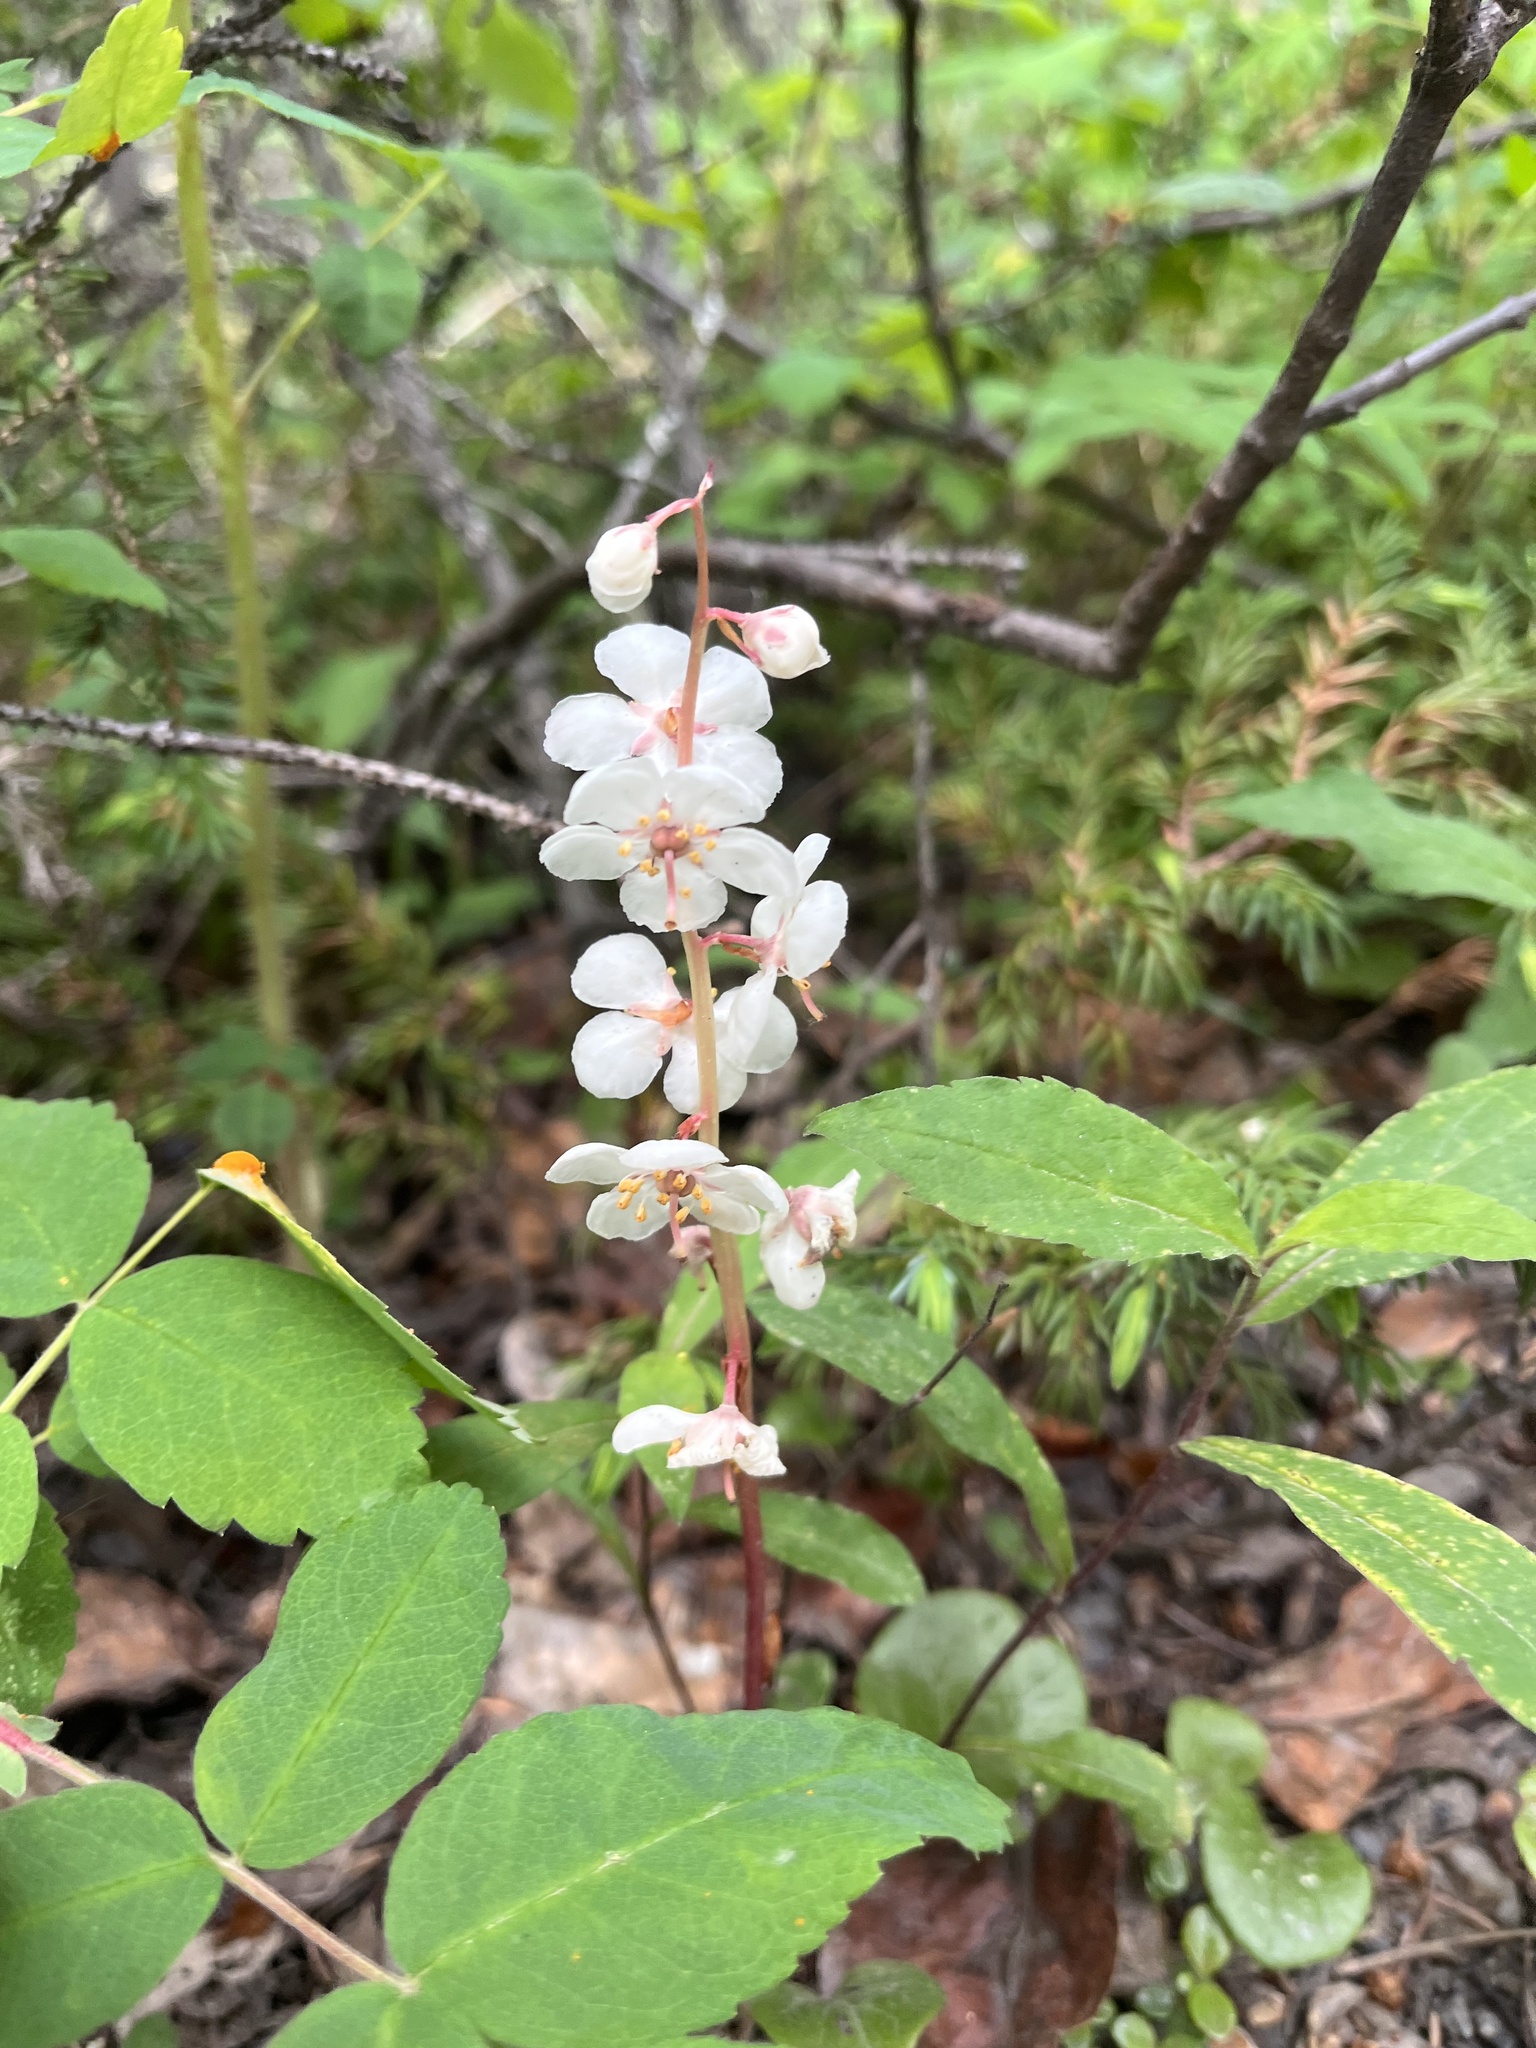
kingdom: Plantae
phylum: Tracheophyta
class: Magnoliopsida
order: Ericales
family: Ericaceae
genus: Pyrola
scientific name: Pyrola grandiflora
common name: Arctic pyrola
